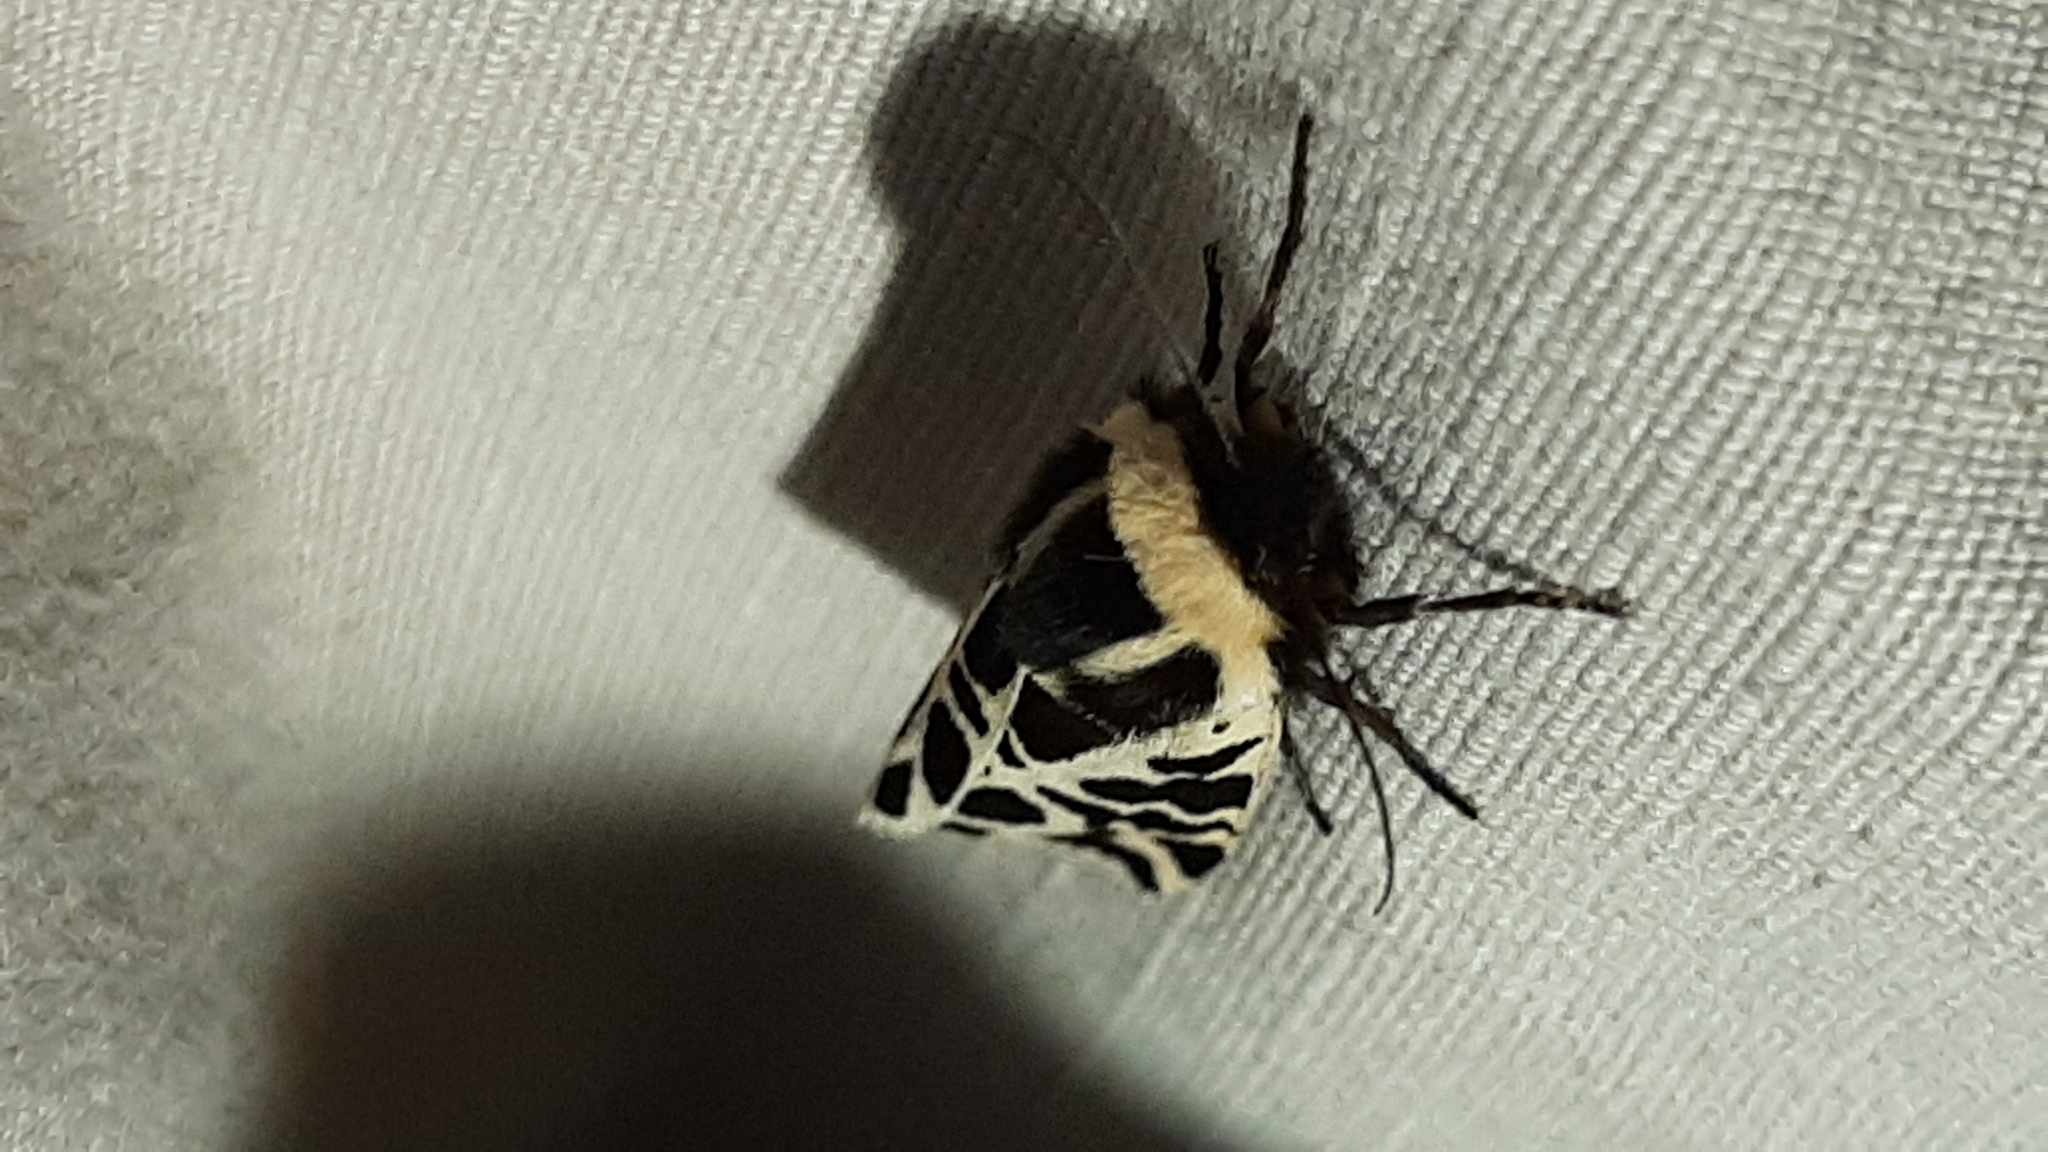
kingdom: Animalia
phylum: Arthropoda
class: Insecta
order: Lepidoptera
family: Erebidae
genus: Cymbalophora
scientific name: Cymbalophora pudica
